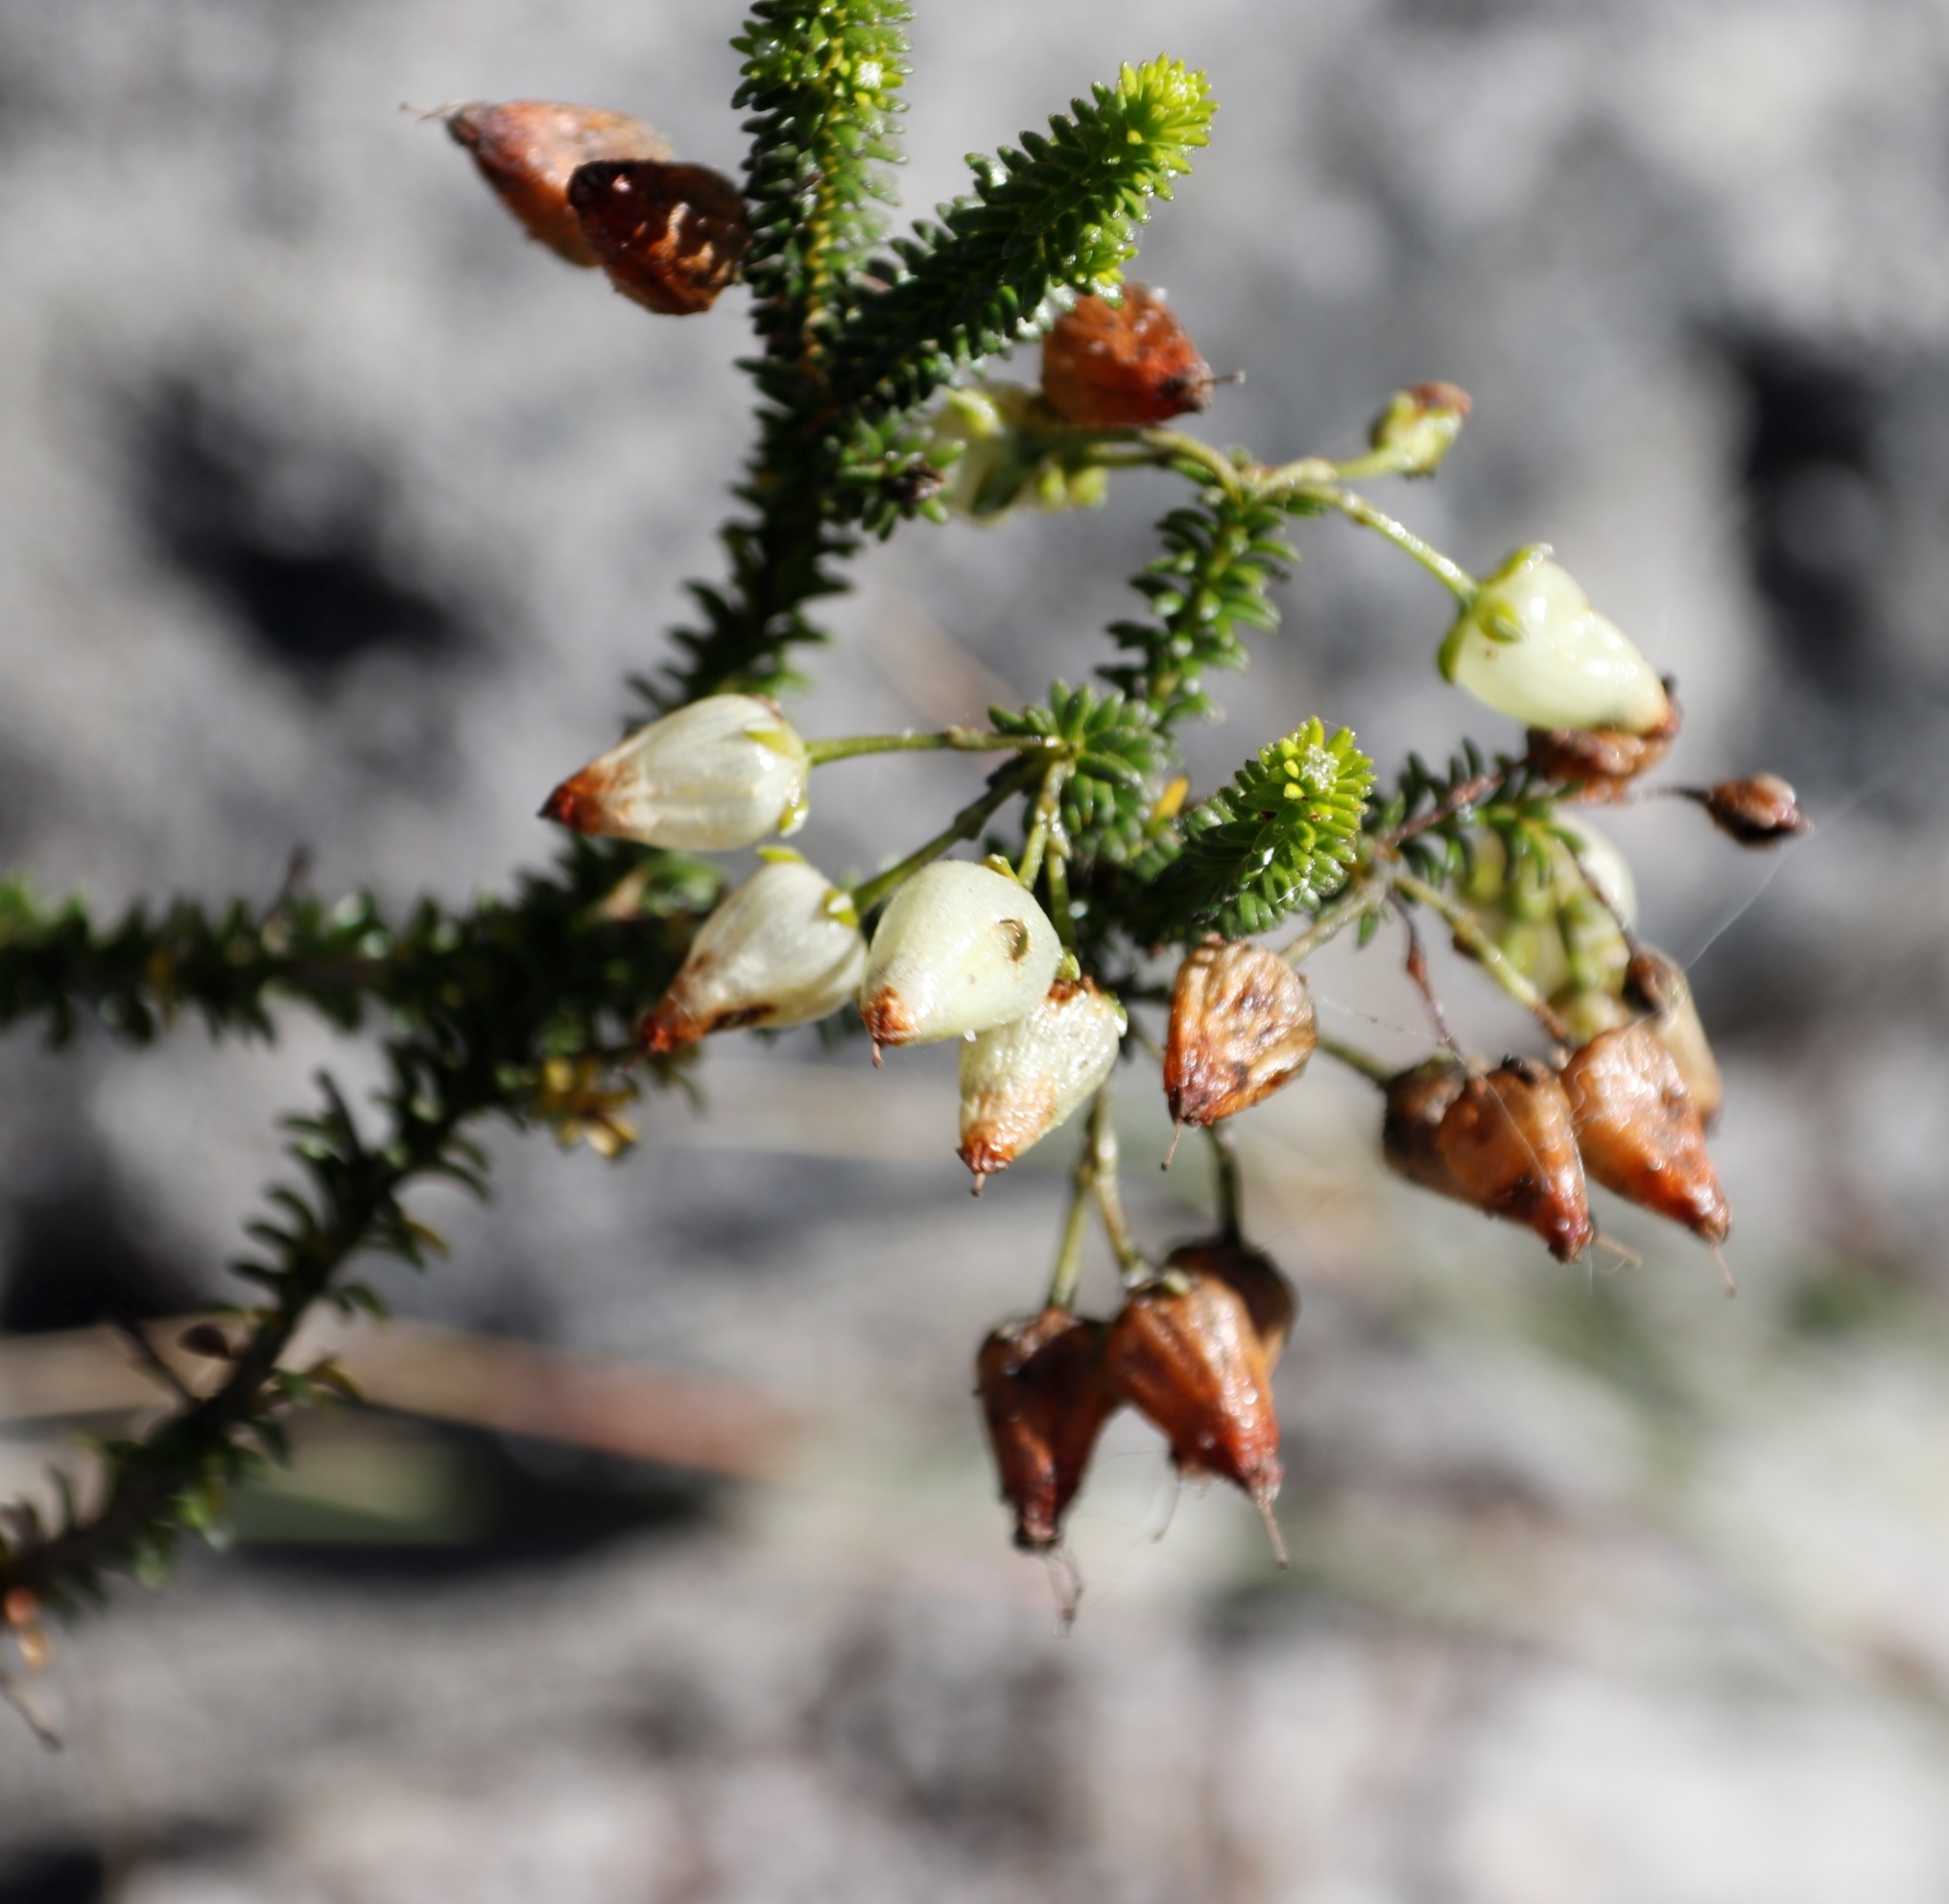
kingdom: Plantae
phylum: Tracheophyta
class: Magnoliopsida
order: Ericales
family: Ericaceae
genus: Erica
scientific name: Erica urna-viridis
